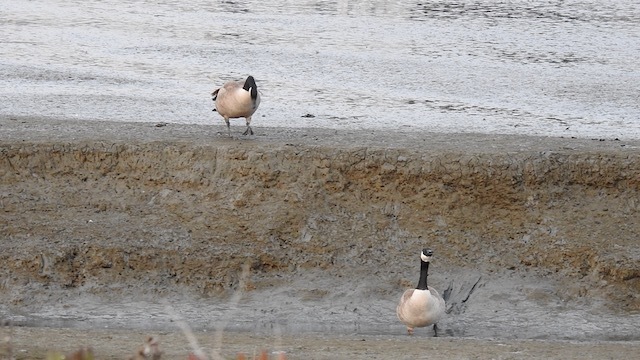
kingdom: Animalia
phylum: Chordata
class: Aves
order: Anseriformes
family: Anatidae
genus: Branta
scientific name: Branta canadensis
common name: Canada goose
